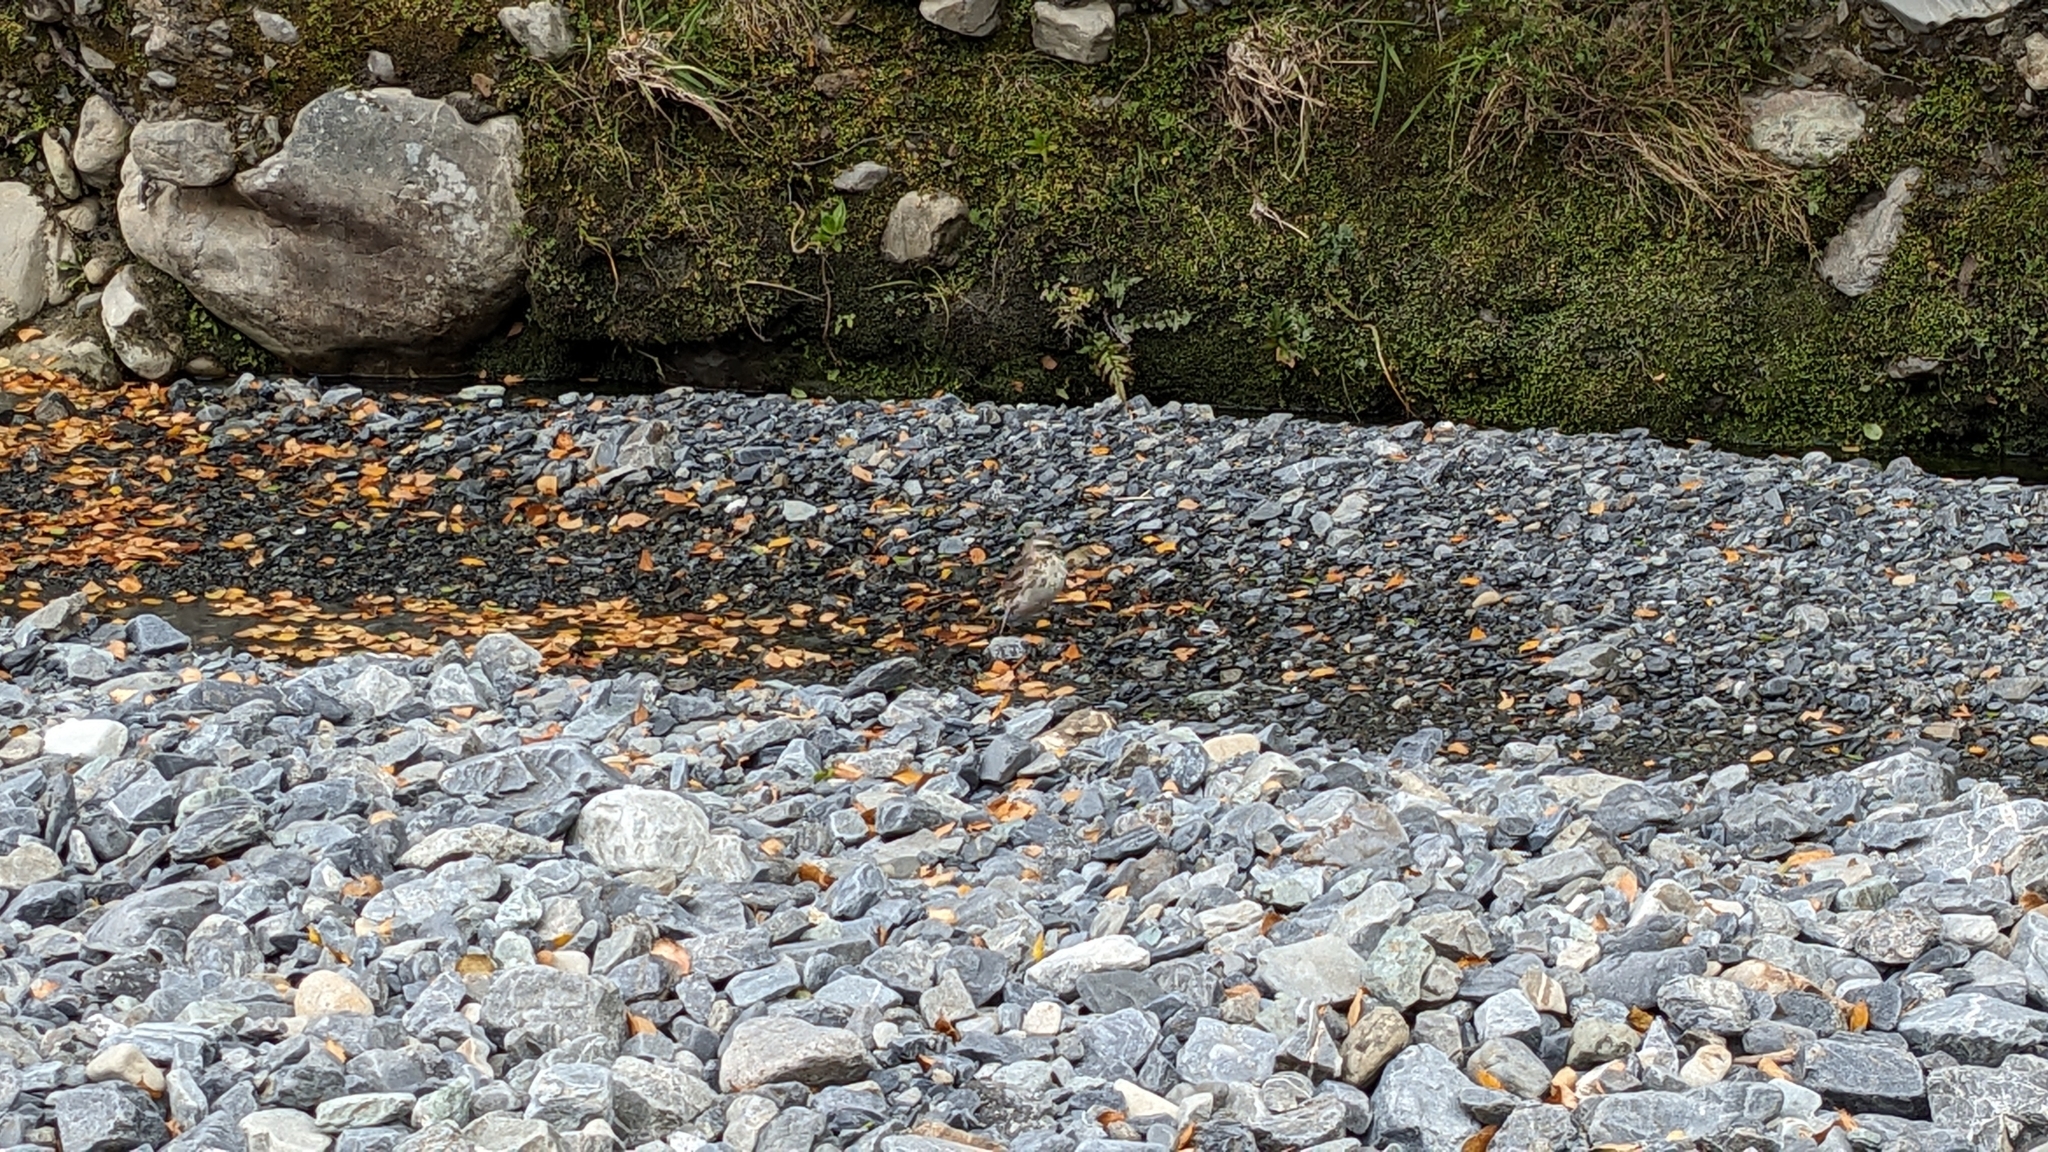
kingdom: Animalia
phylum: Chordata
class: Aves
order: Passeriformes
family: Motacillidae
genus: Anthus
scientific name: Anthus novaeseelandiae
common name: New zealand pipit
